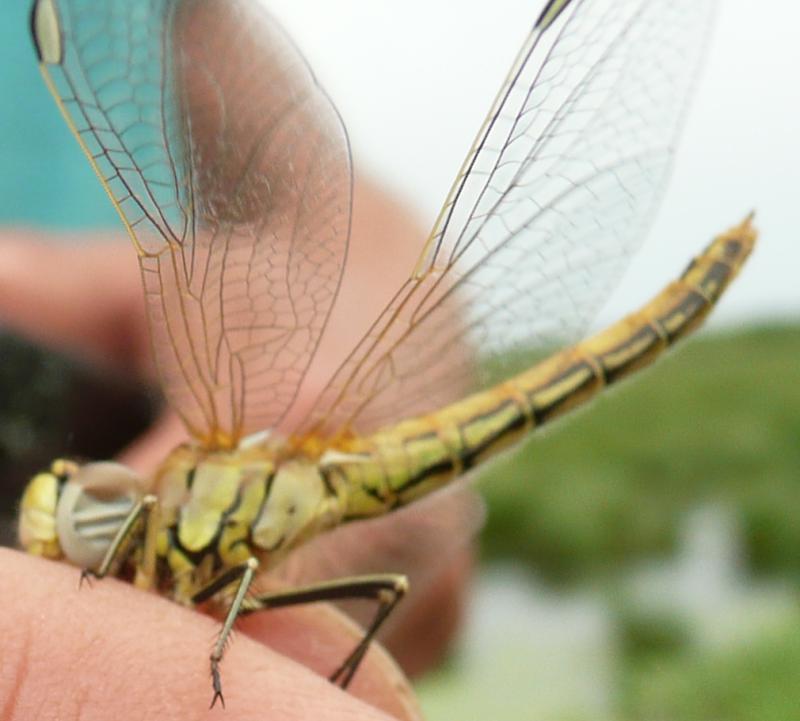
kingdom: Animalia
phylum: Arthropoda
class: Insecta
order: Odonata
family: Libellulidae
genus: Sympetrum
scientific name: Sympetrum fonscolombii
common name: Red-veined darter
